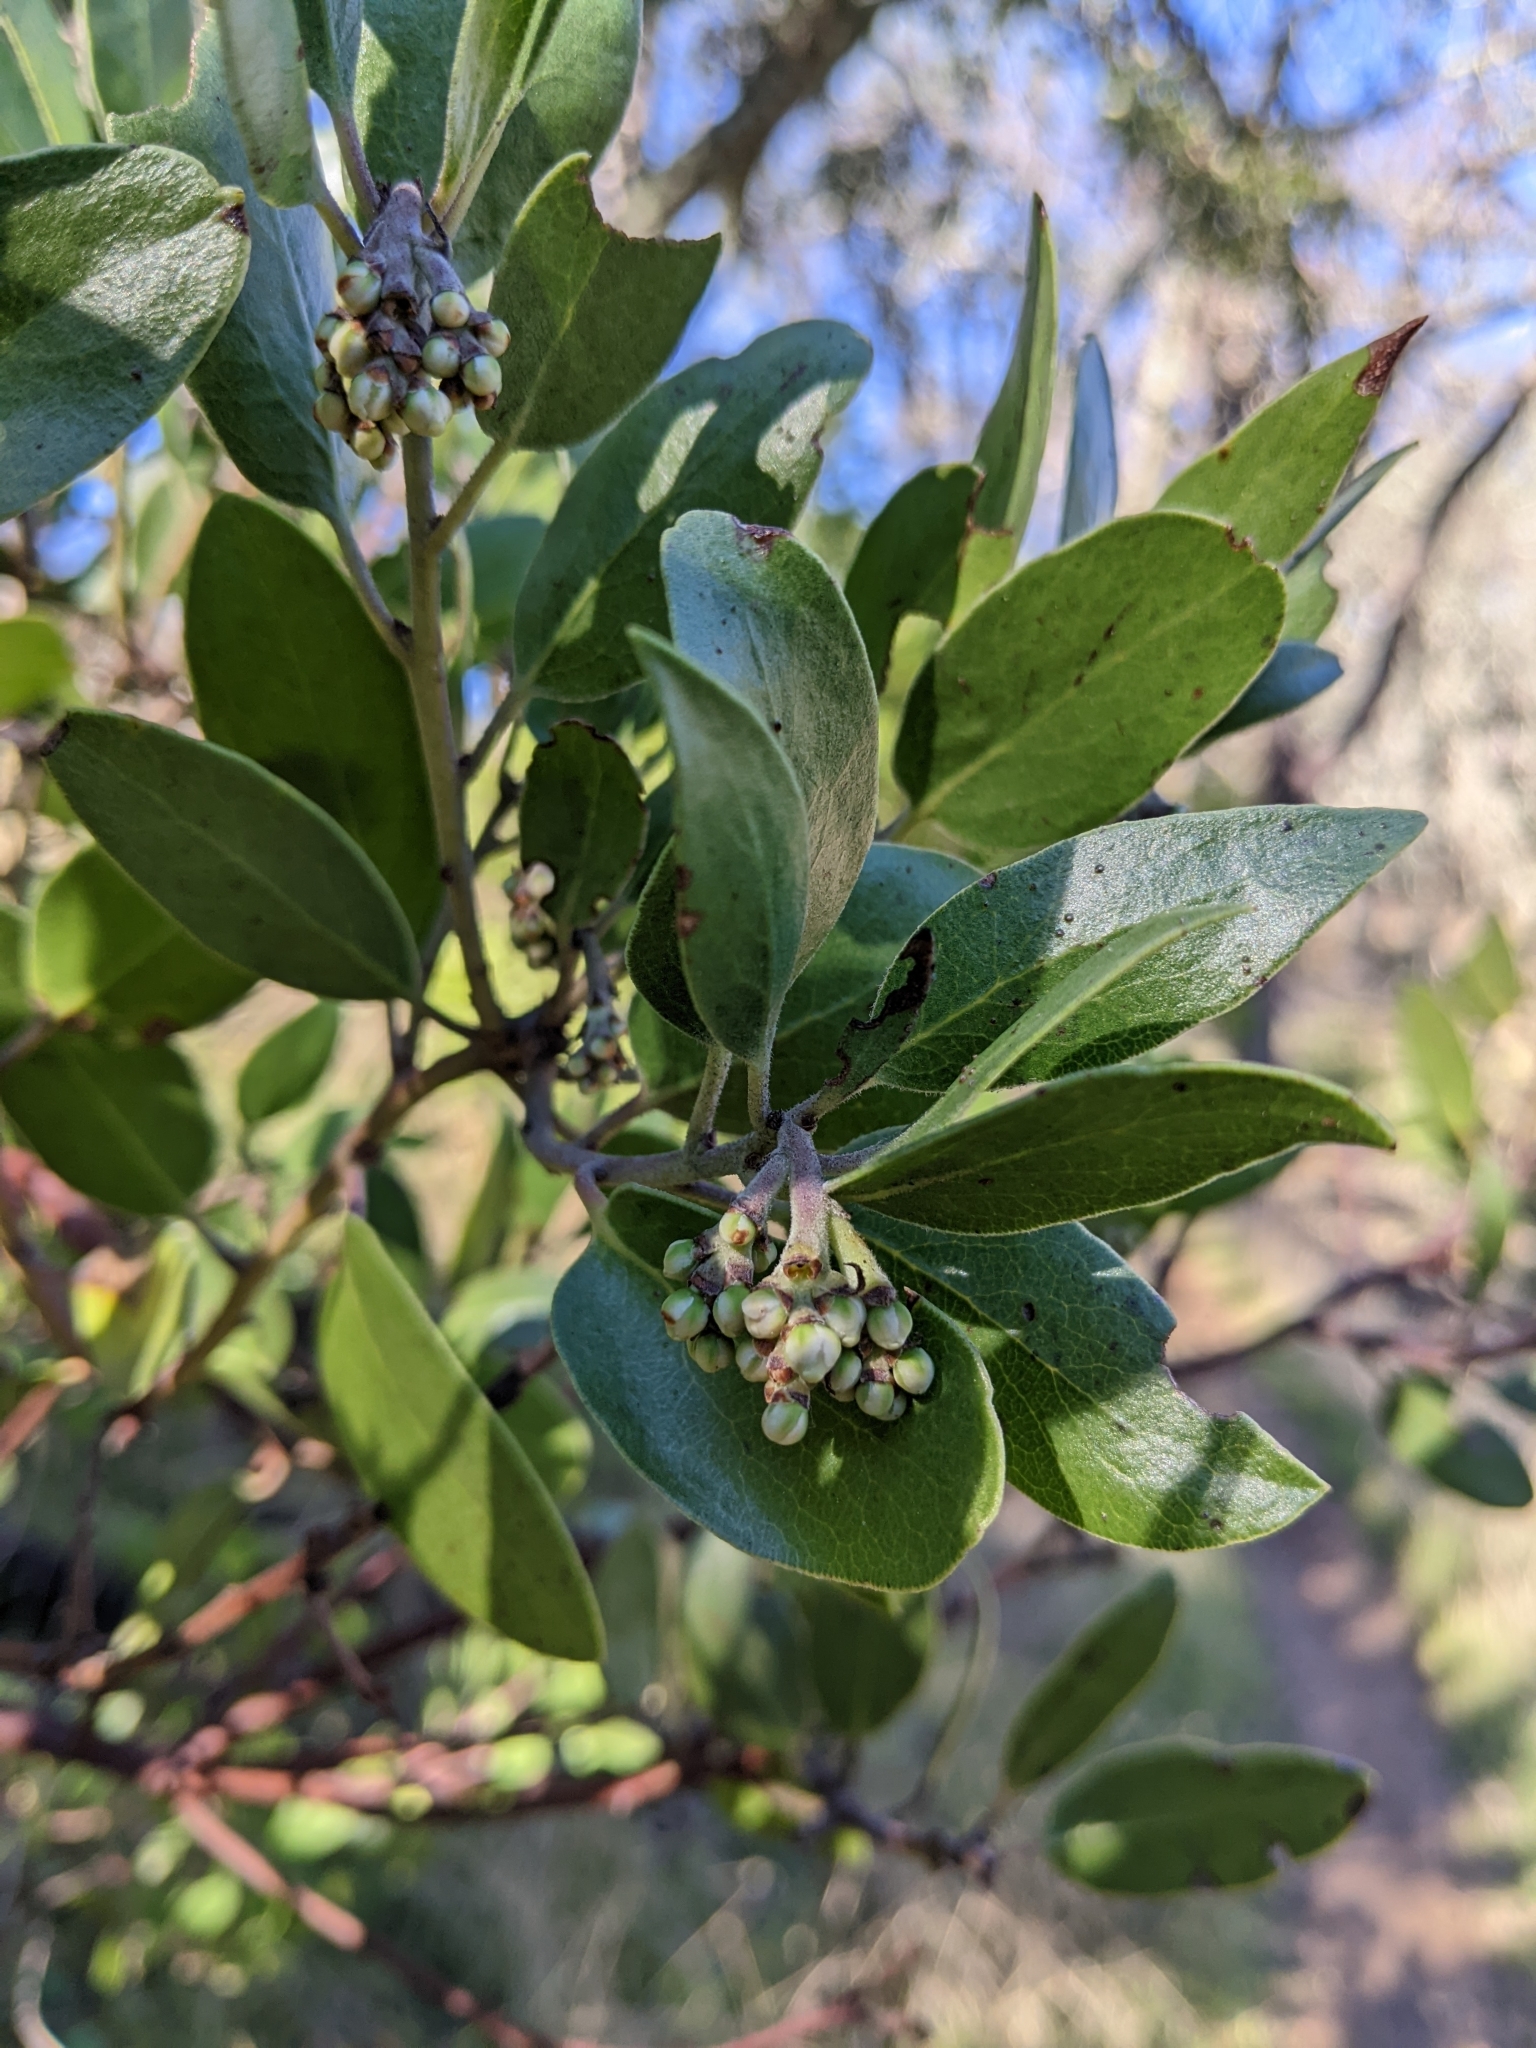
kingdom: Plantae
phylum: Tracheophyta
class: Magnoliopsida
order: Ericales
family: Ericaceae
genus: Arctostaphylos
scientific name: Arctostaphylos manzanita
